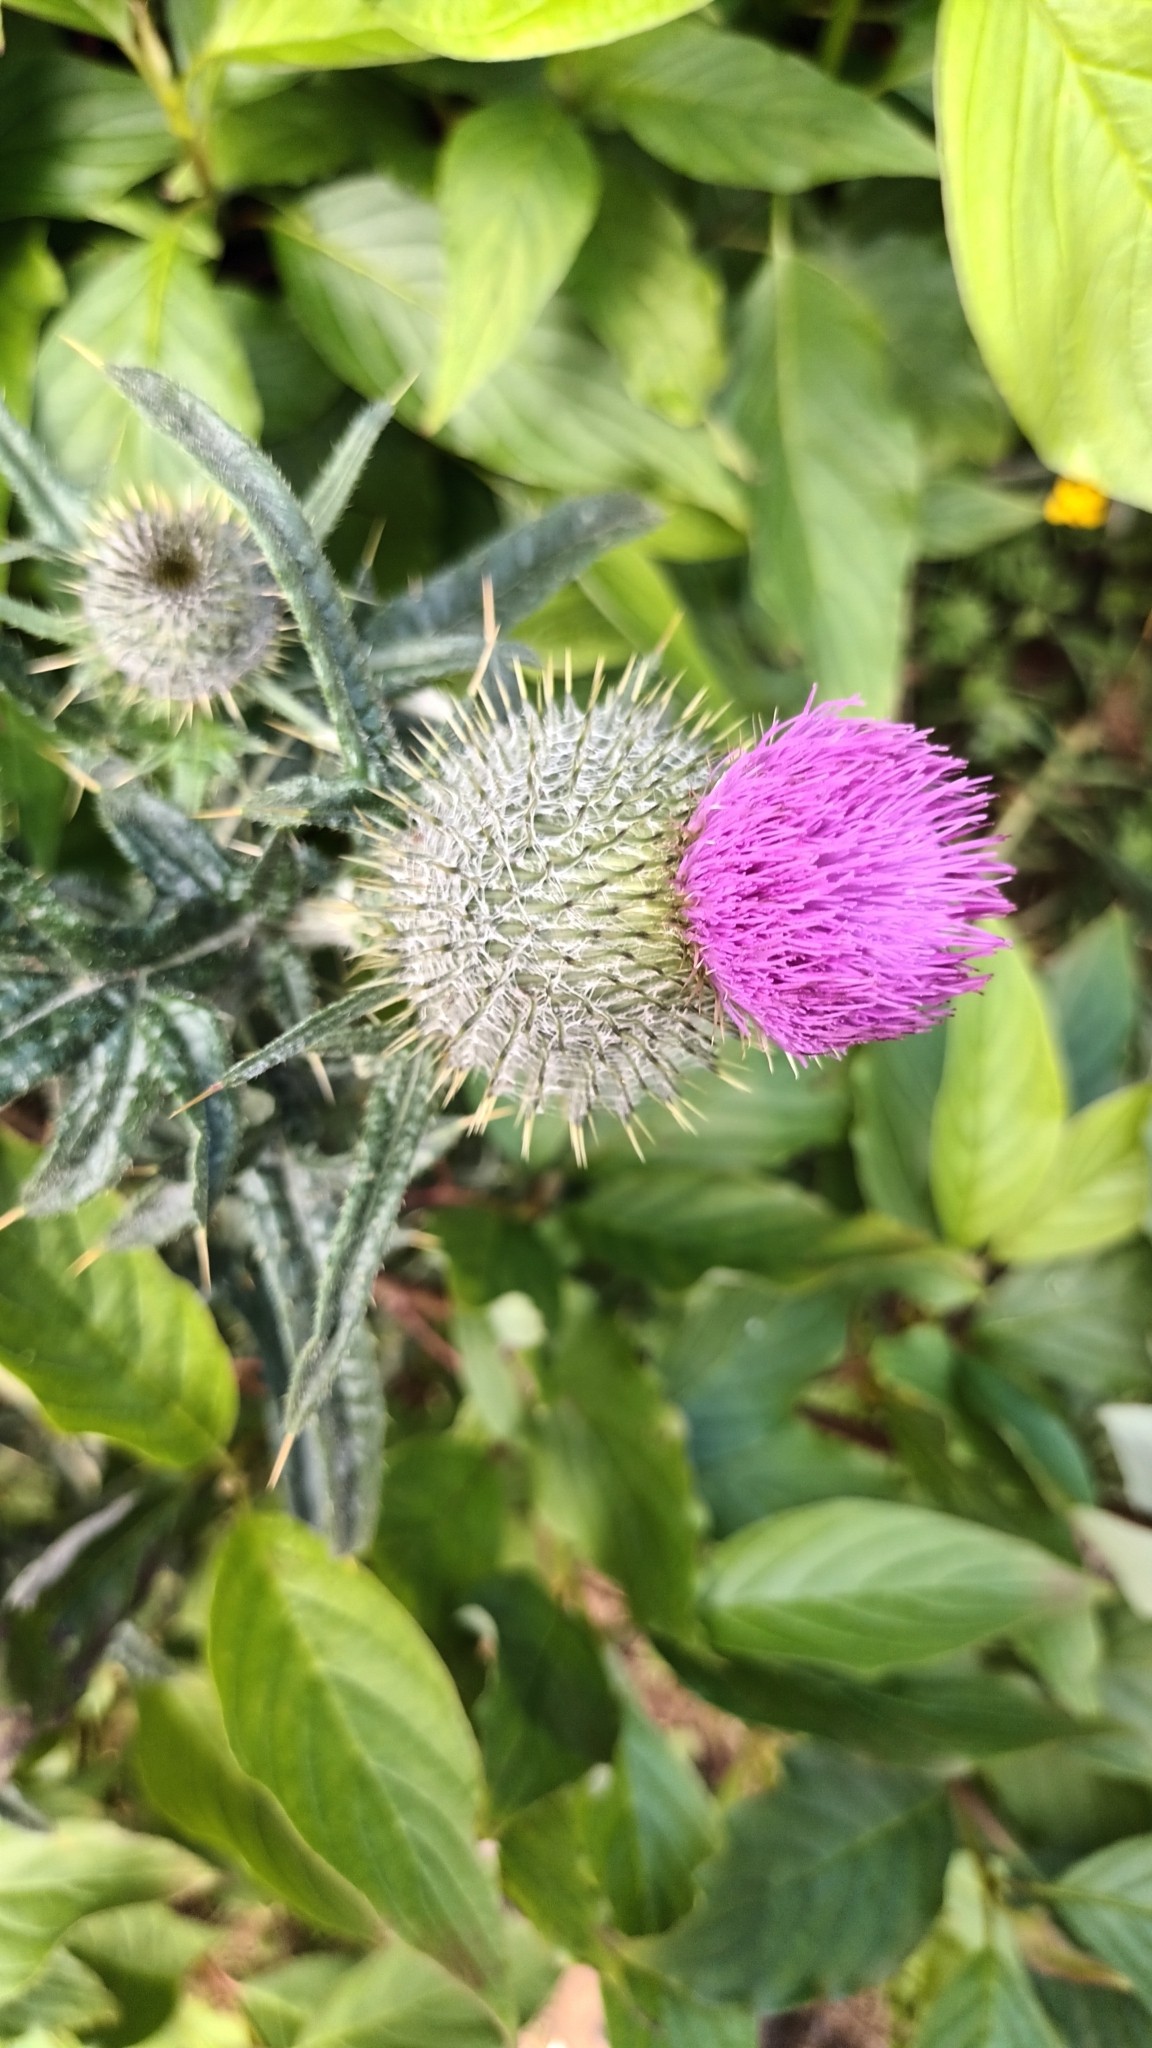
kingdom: Plantae
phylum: Tracheophyta
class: Magnoliopsida
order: Asterales
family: Asteraceae
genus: Cirsium
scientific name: Cirsium vulgare
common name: Bull thistle
